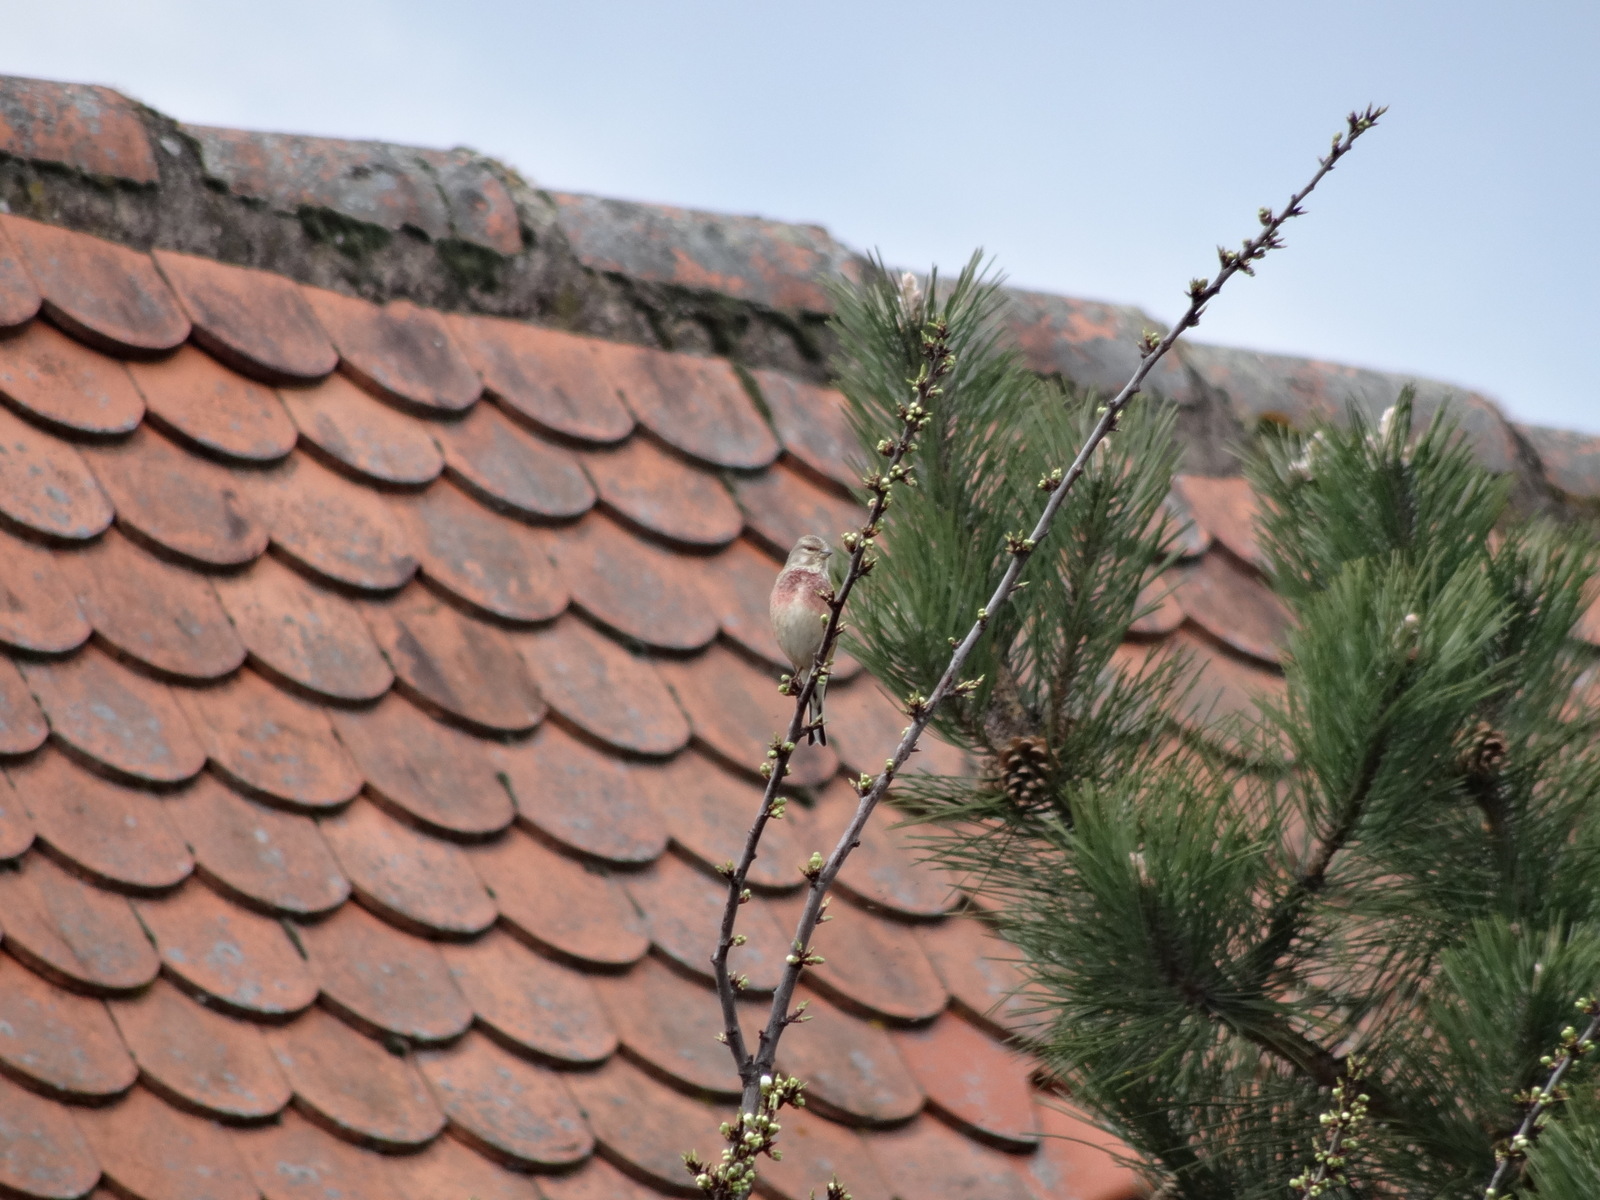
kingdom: Animalia
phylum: Chordata
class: Aves
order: Passeriformes
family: Fringillidae
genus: Linaria
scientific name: Linaria cannabina
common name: Common linnet
